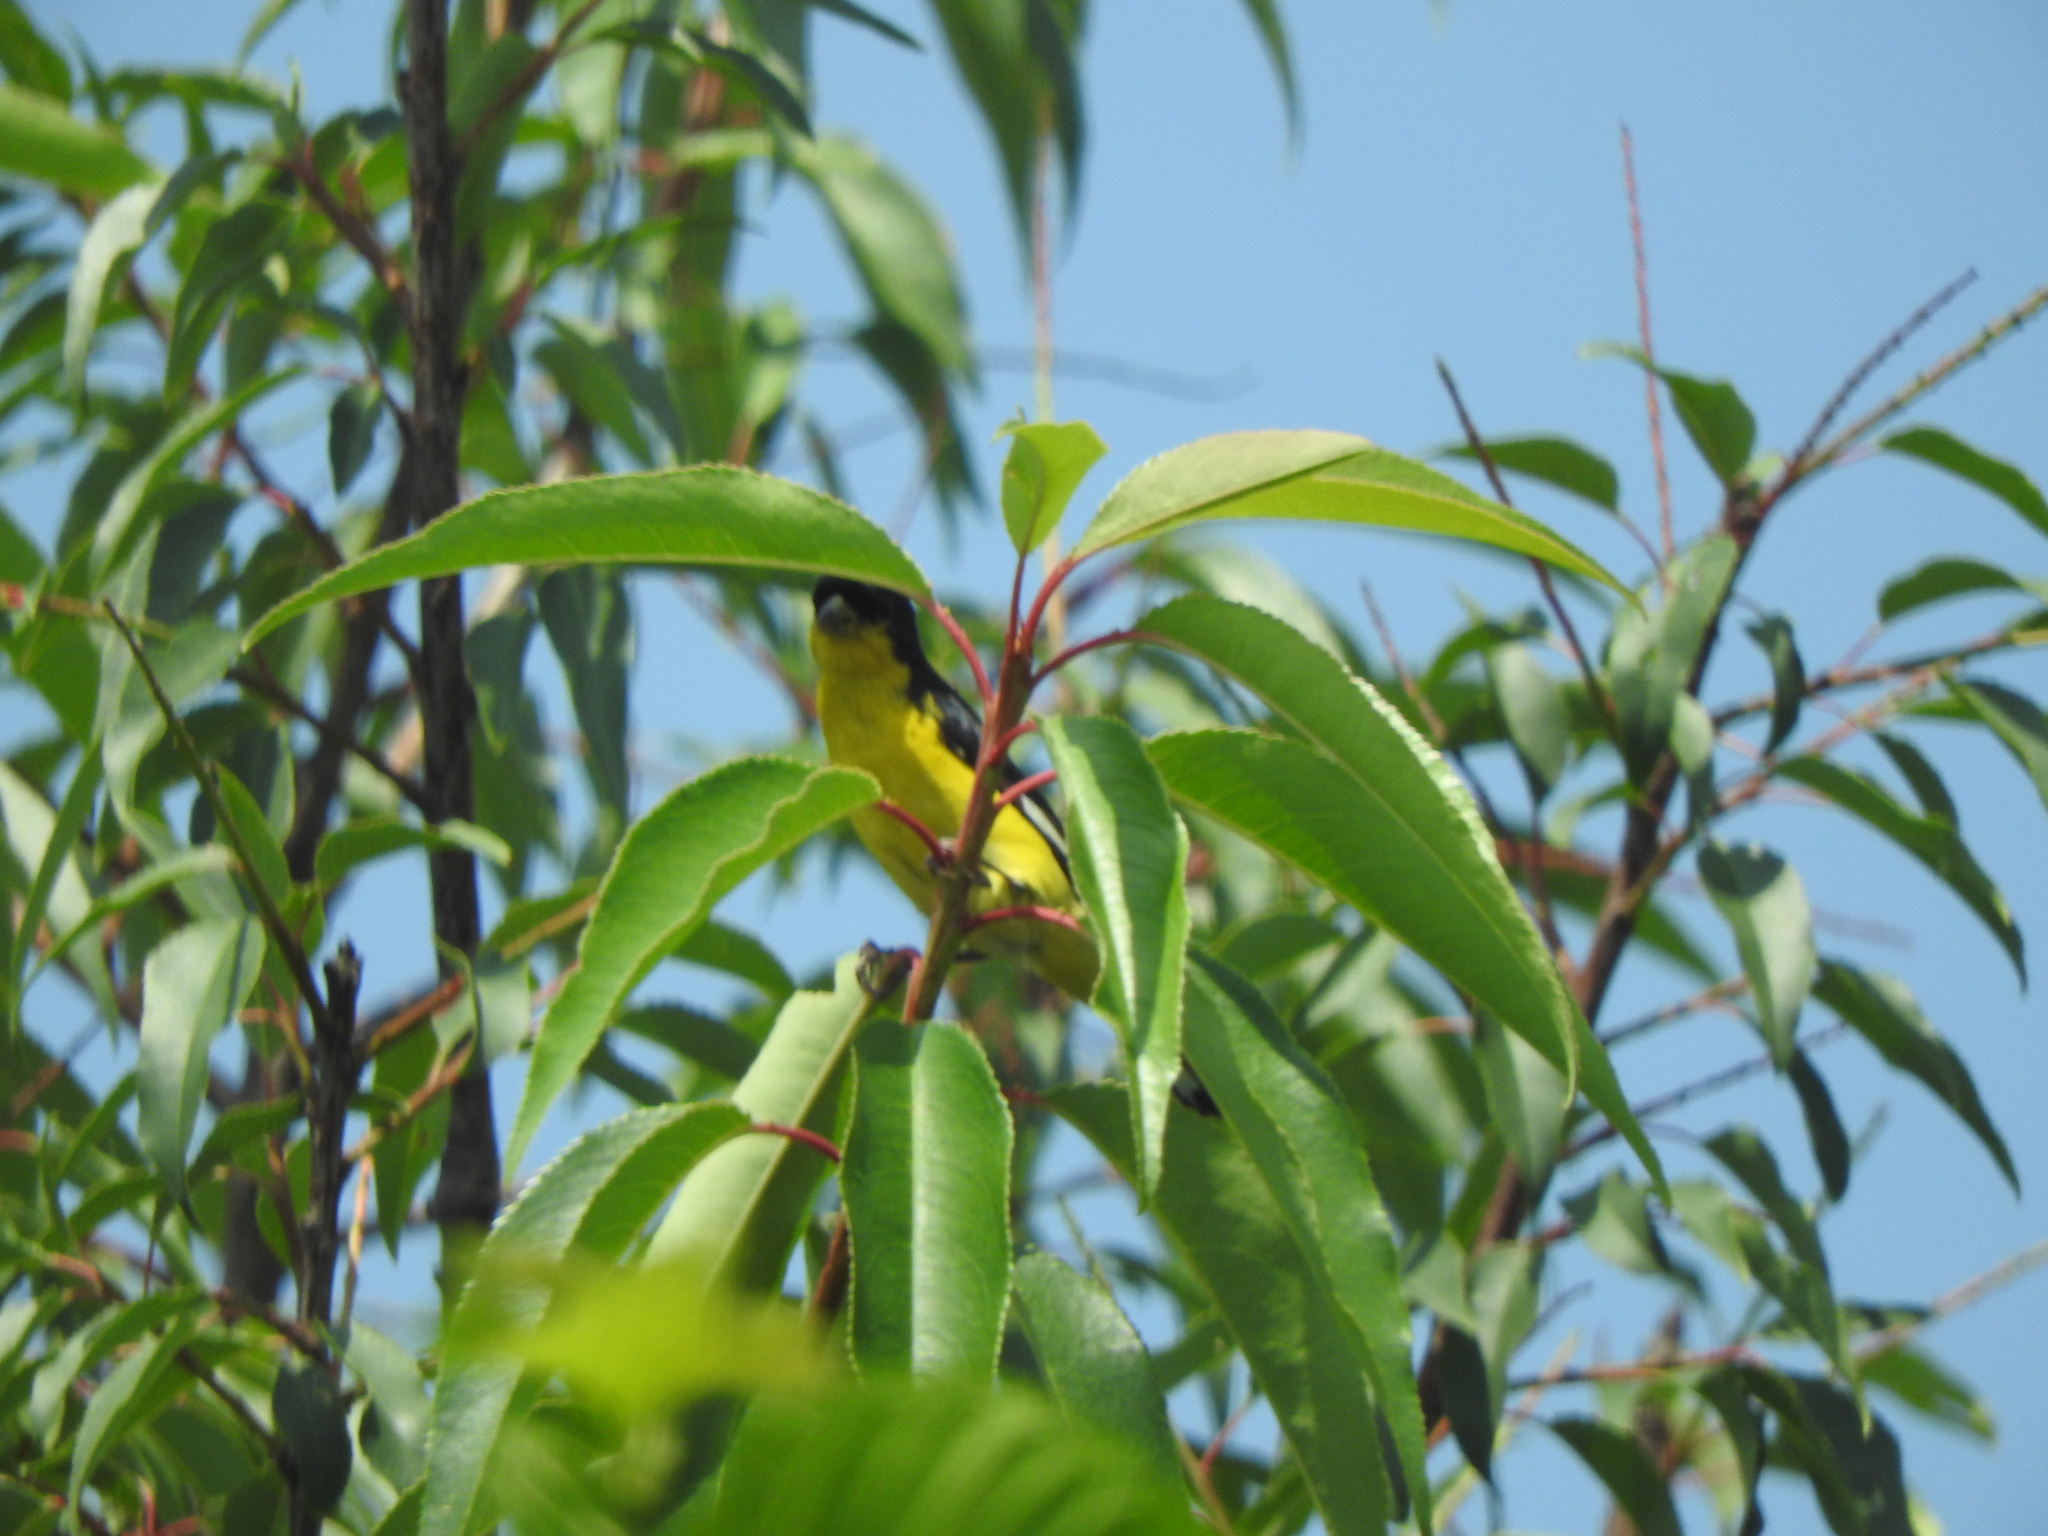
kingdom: Animalia
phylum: Chordata
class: Aves
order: Passeriformes
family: Fringillidae
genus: Spinus
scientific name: Spinus psaltria
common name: Lesser goldfinch
